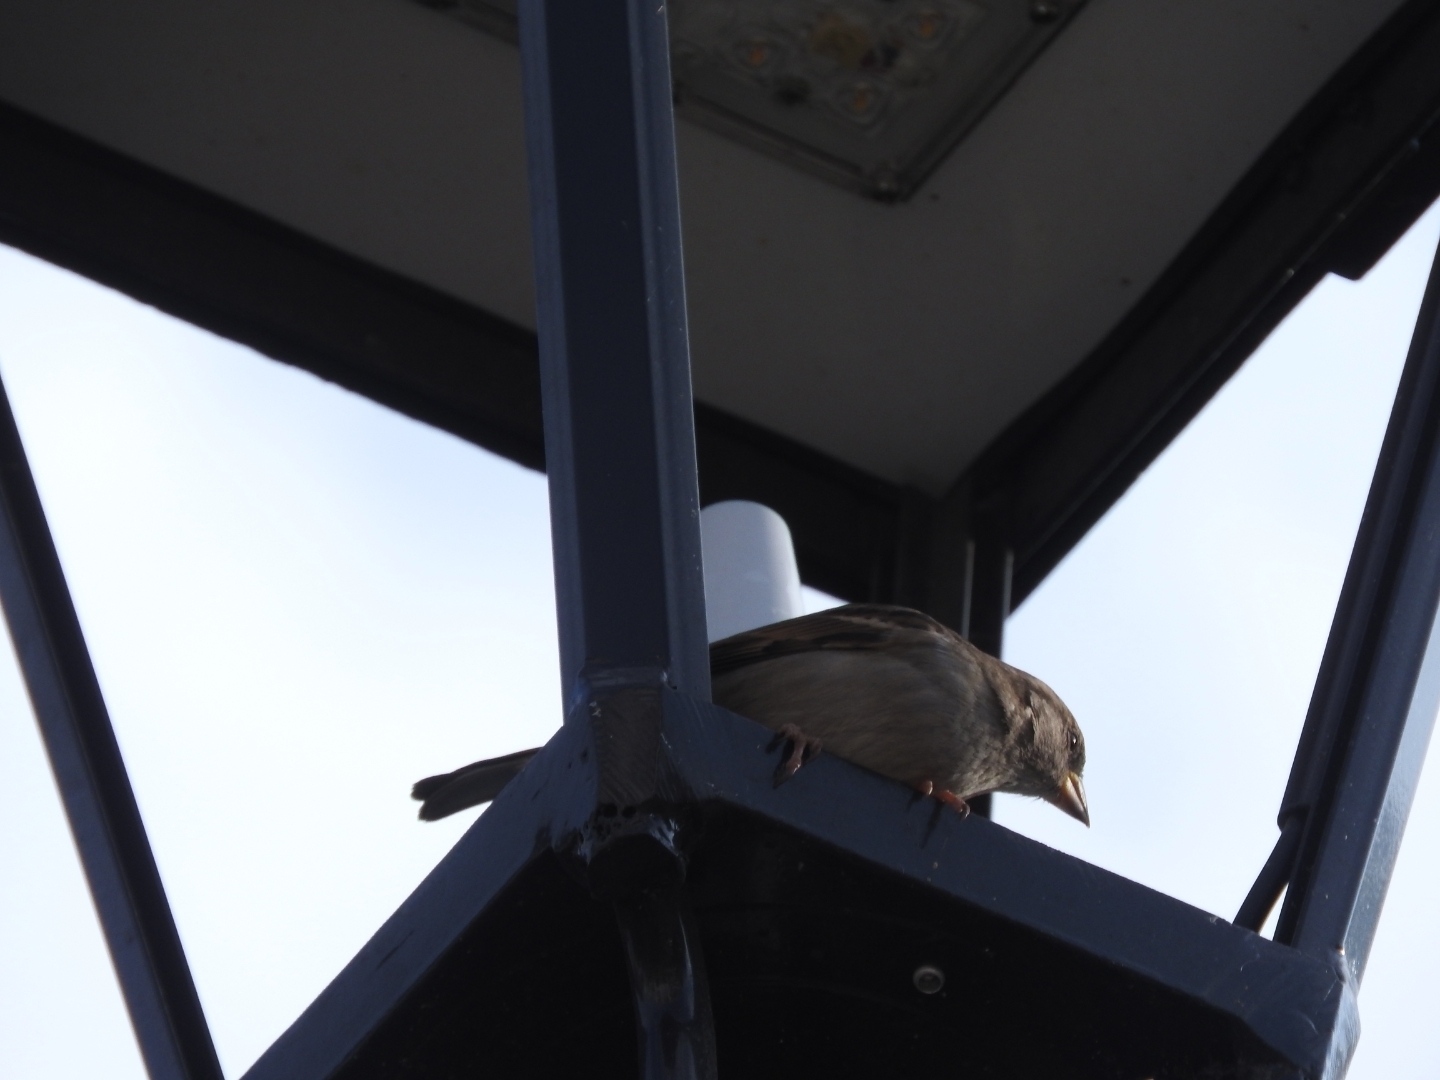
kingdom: Animalia
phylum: Chordata
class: Aves
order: Passeriformes
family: Passeridae
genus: Passer
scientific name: Passer domesticus
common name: House sparrow
